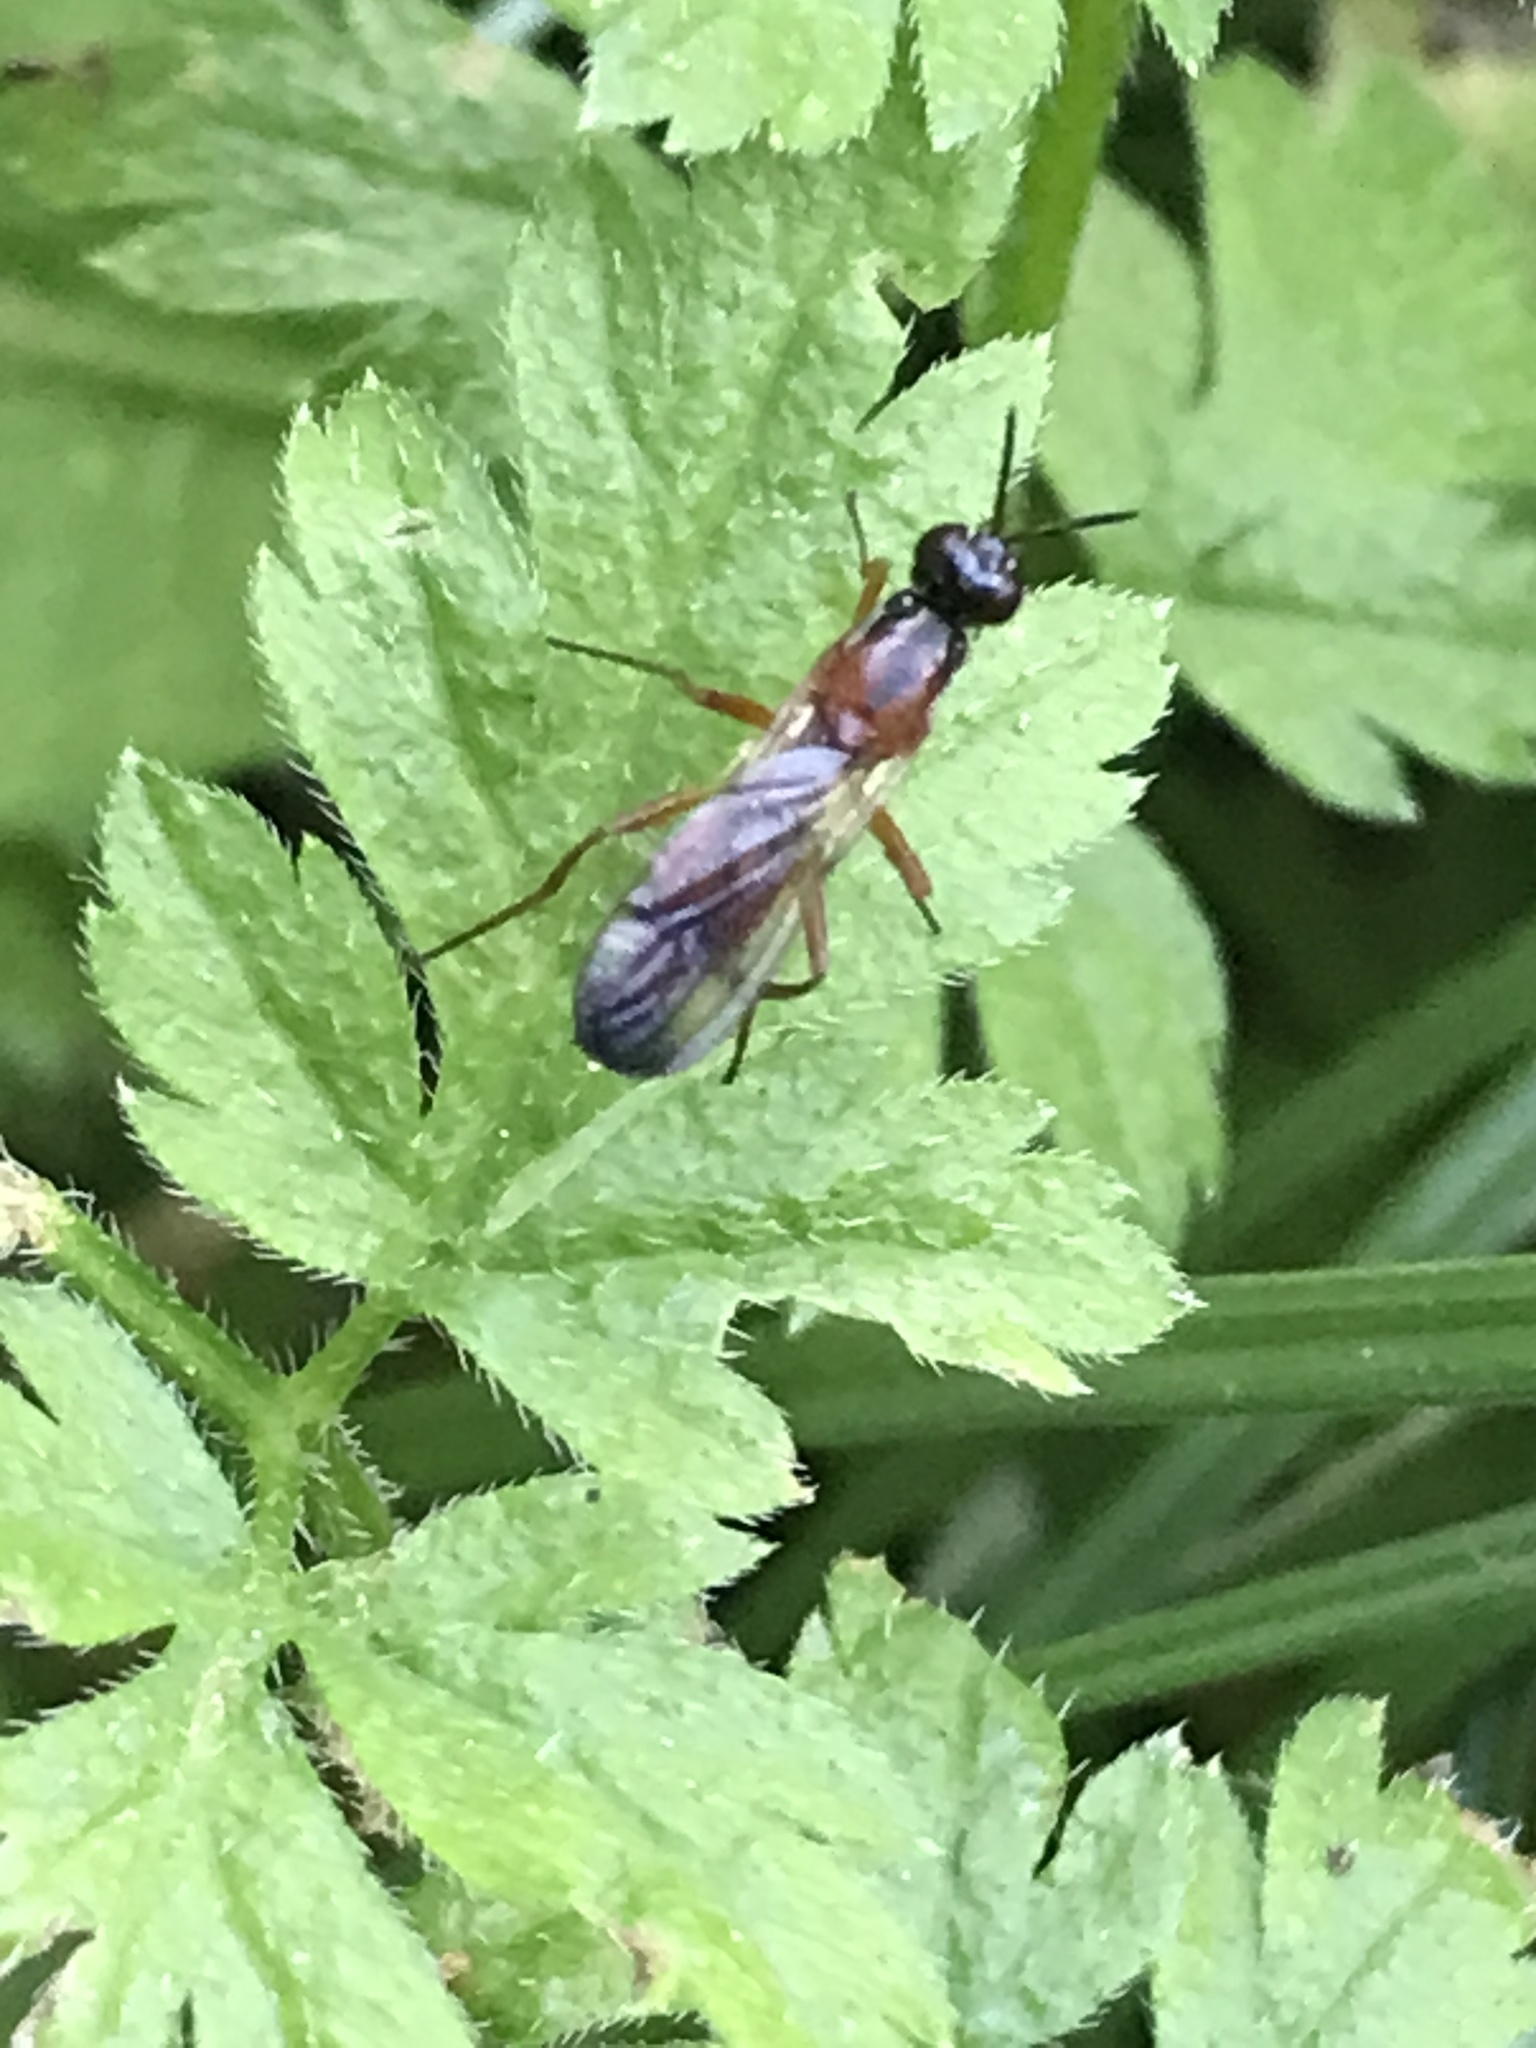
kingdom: Animalia
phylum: Arthropoda
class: Insecta
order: Diptera
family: Psilidae
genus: Loxocera
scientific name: Loxocera cylindrica
